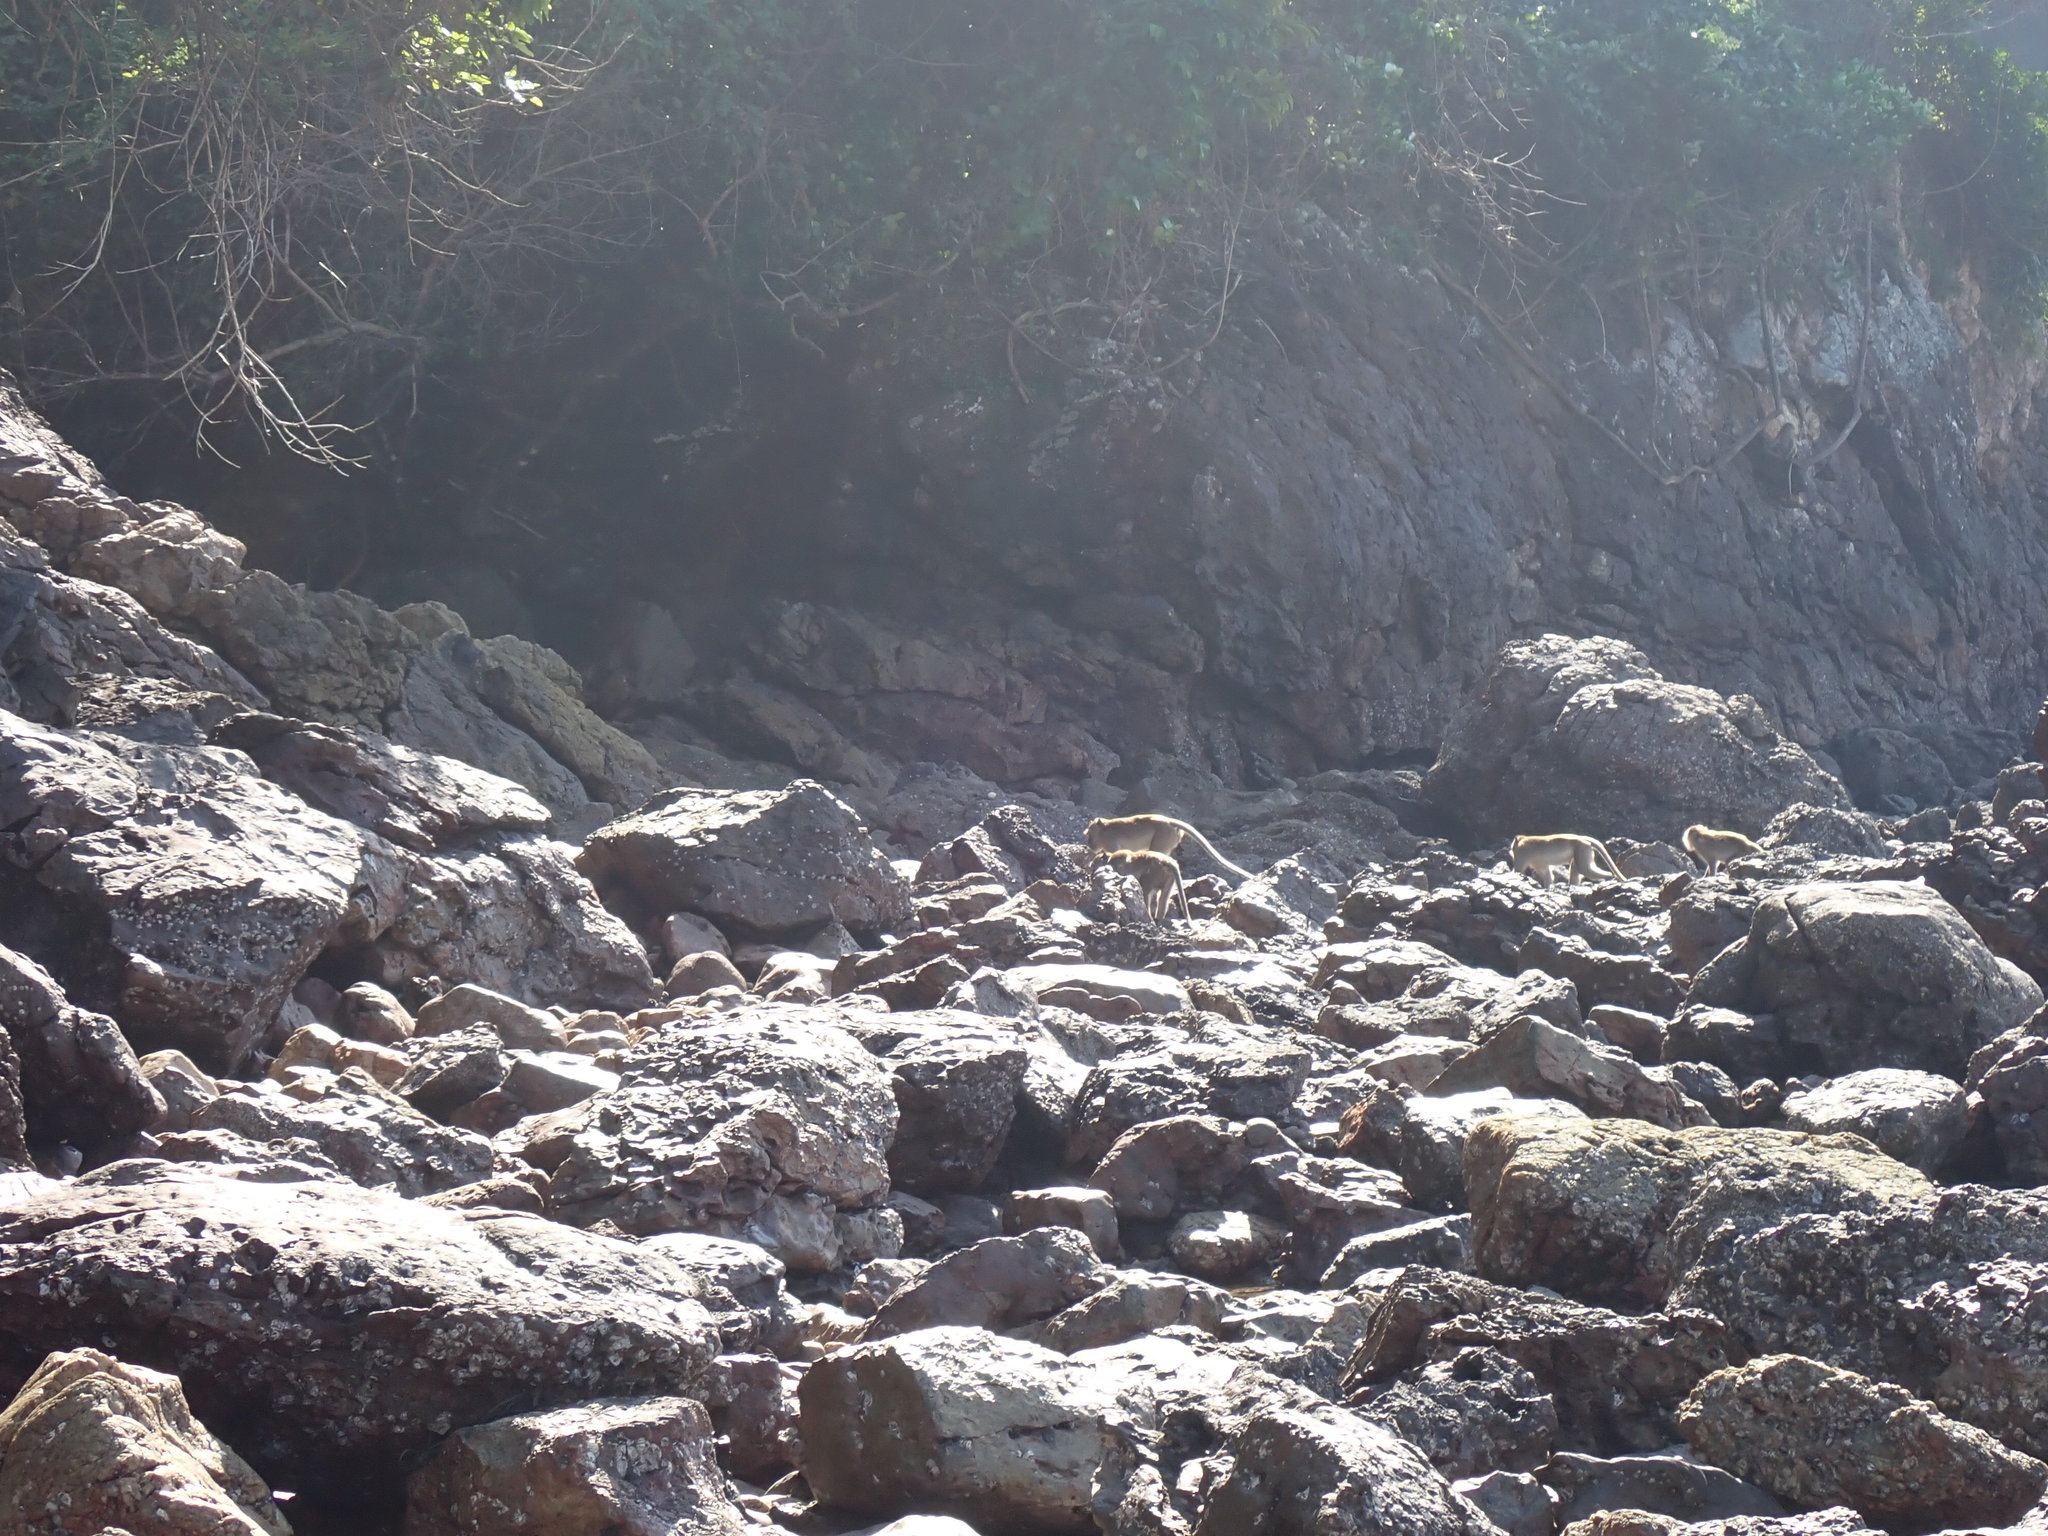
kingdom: Animalia
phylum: Chordata
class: Mammalia
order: Primates
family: Cercopithecidae
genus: Macaca
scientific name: Macaca fascicularis
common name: Crab-eating macaque
